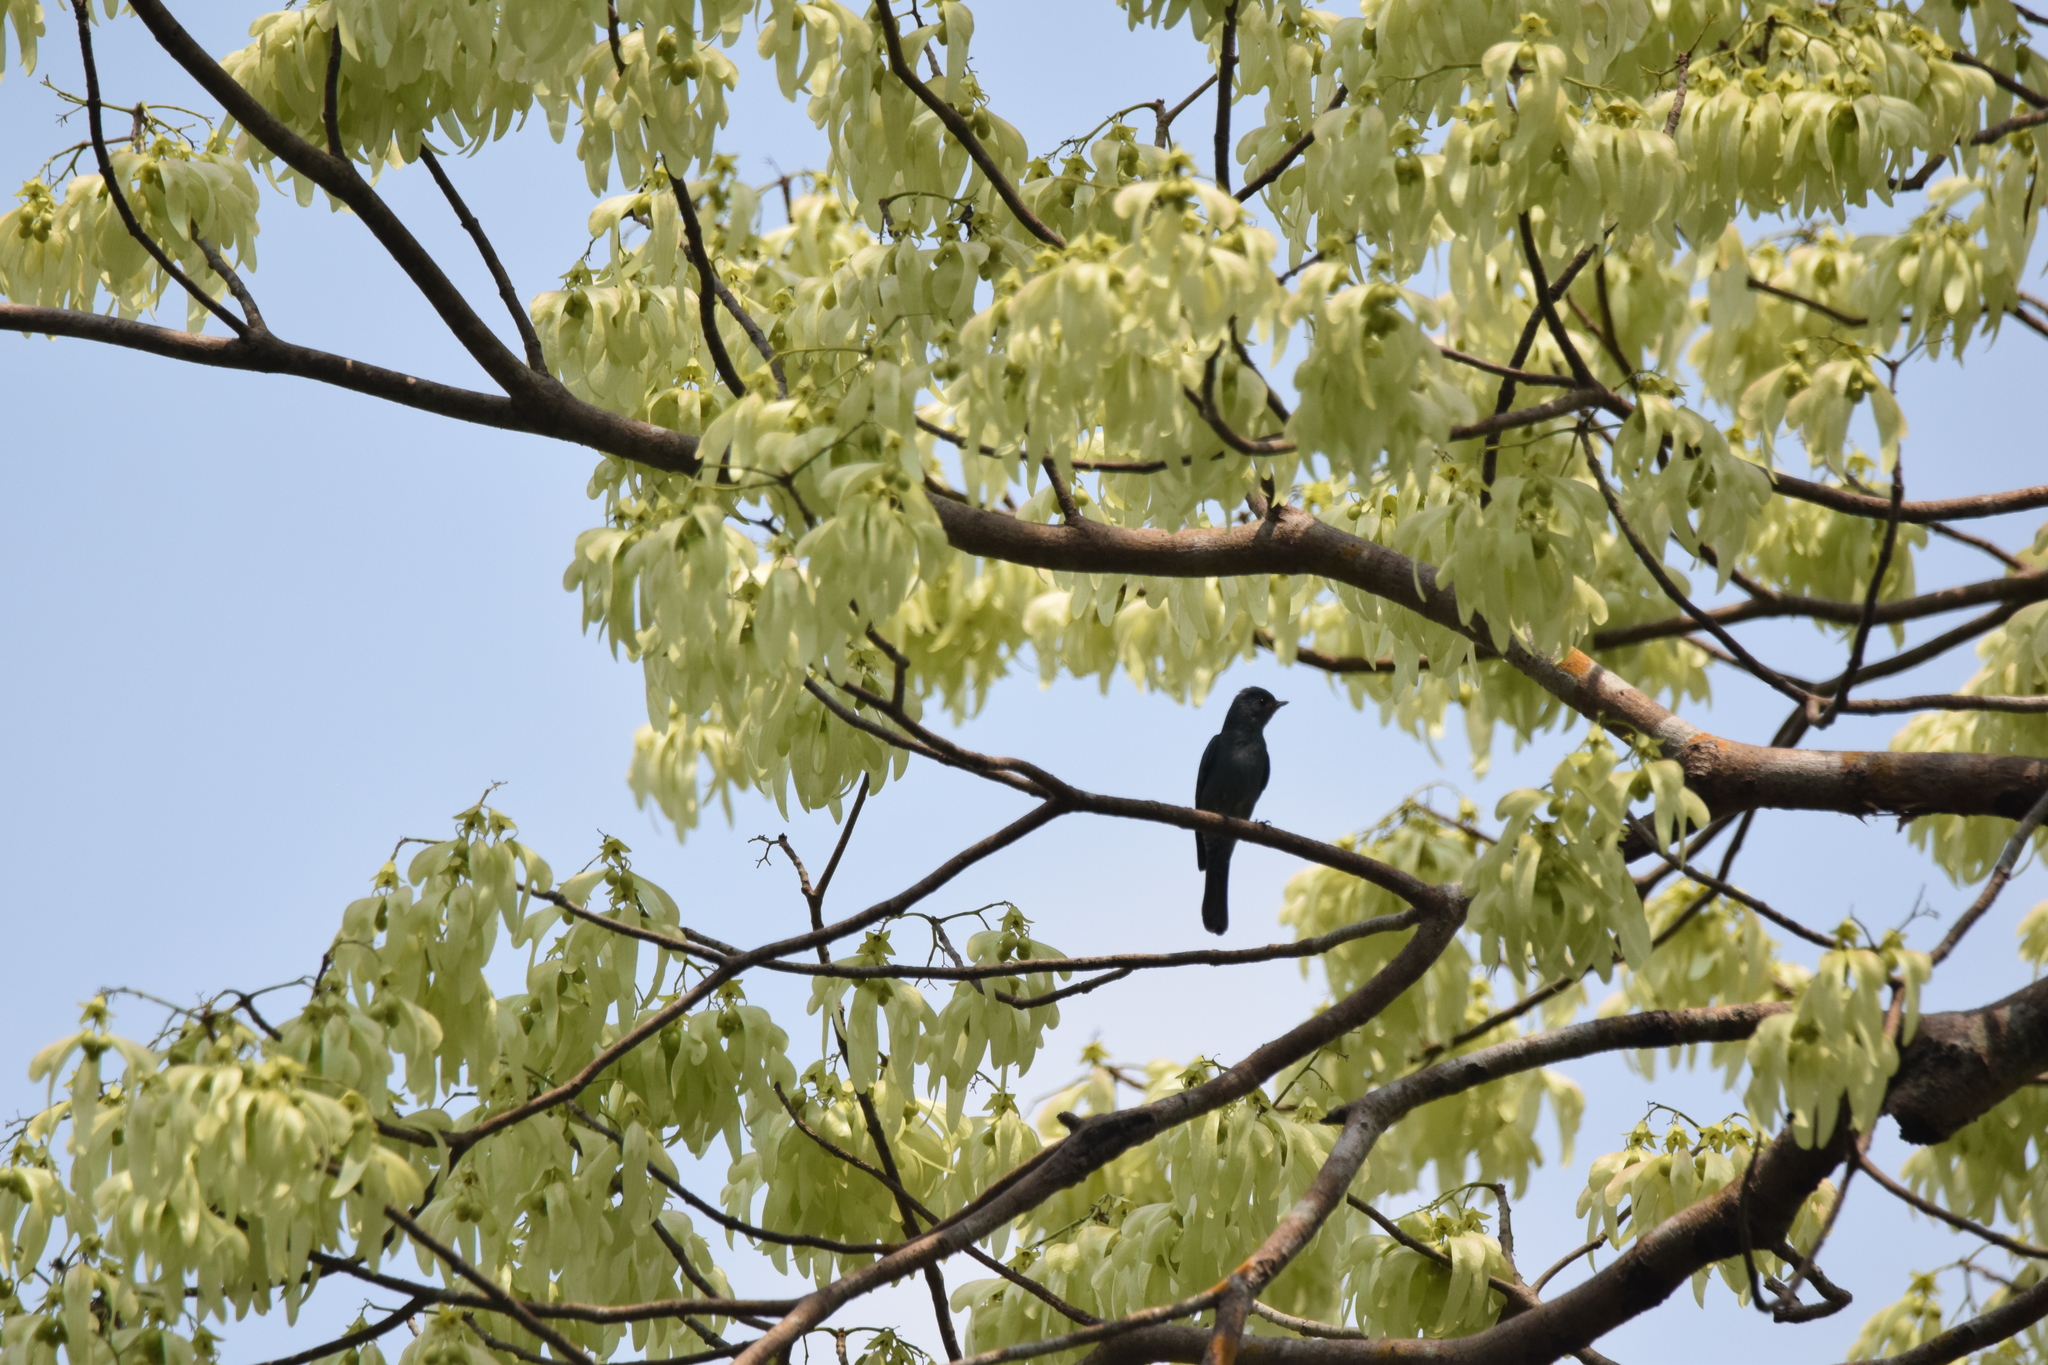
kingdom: Animalia
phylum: Chordata
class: Aves
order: Cuculiformes
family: Cuculidae
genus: Surniculus
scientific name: Surniculus lugubris
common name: Square-tailed drongo-cuckoo
